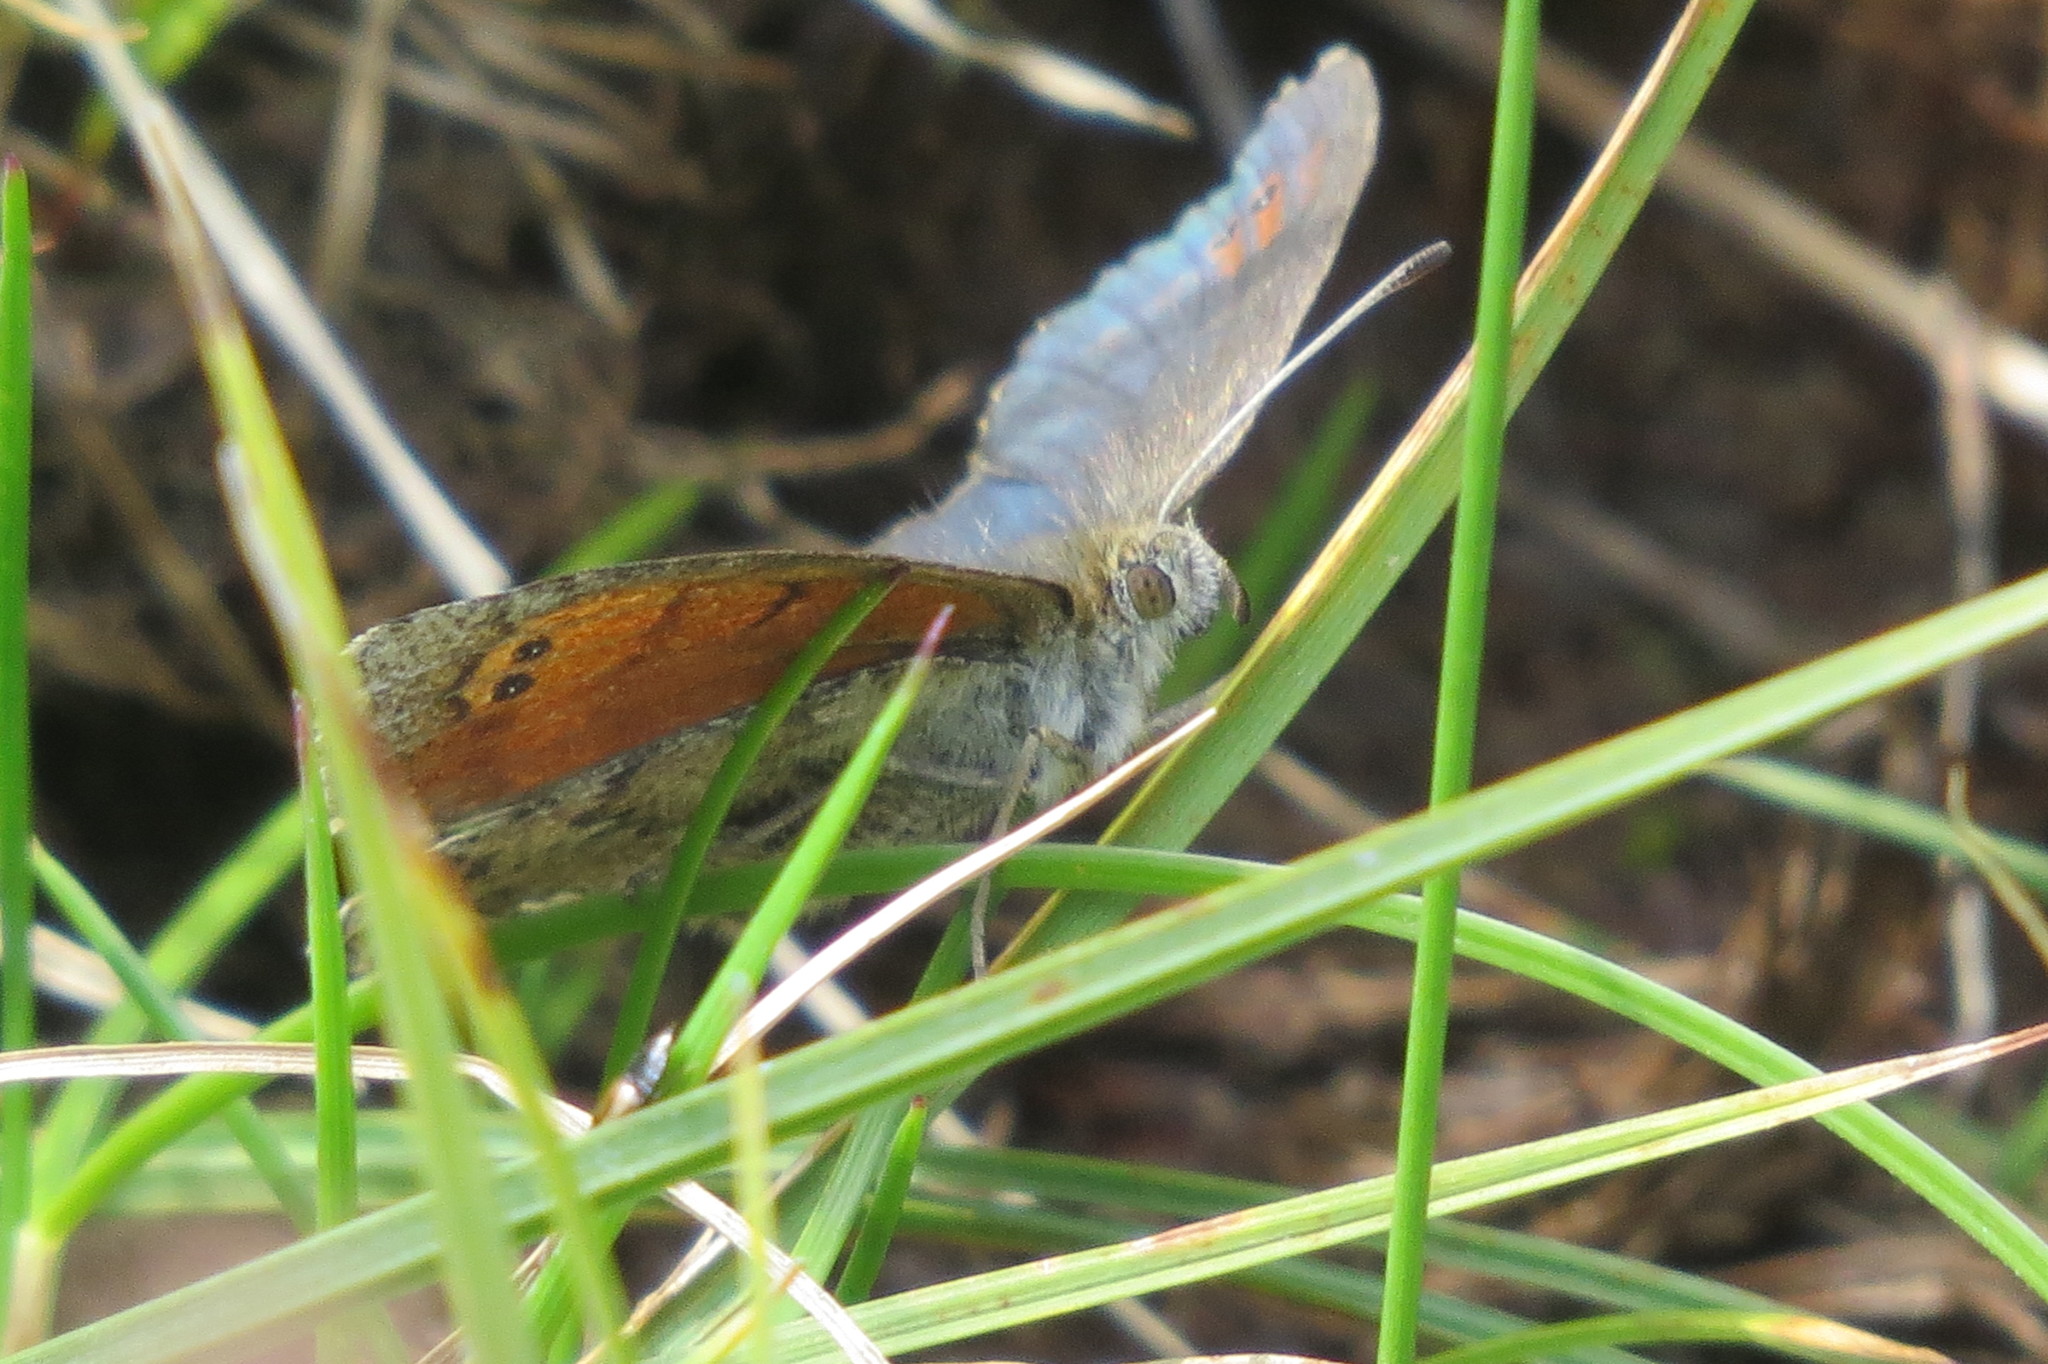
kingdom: Animalia
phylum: Arthropoda
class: Insecta
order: Lepidoptera
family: Nymphalidae
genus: Erebia
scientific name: Erebia tyndarus
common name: Swiss brassy ringlet
